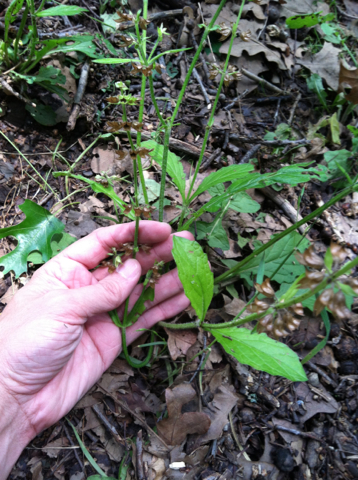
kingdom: Plantae
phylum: Tracheophyta
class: Magnoliopsida
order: Lamiales
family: Lamiaceae
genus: Salvia
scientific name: Salvia lyrata
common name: Cancerweed
